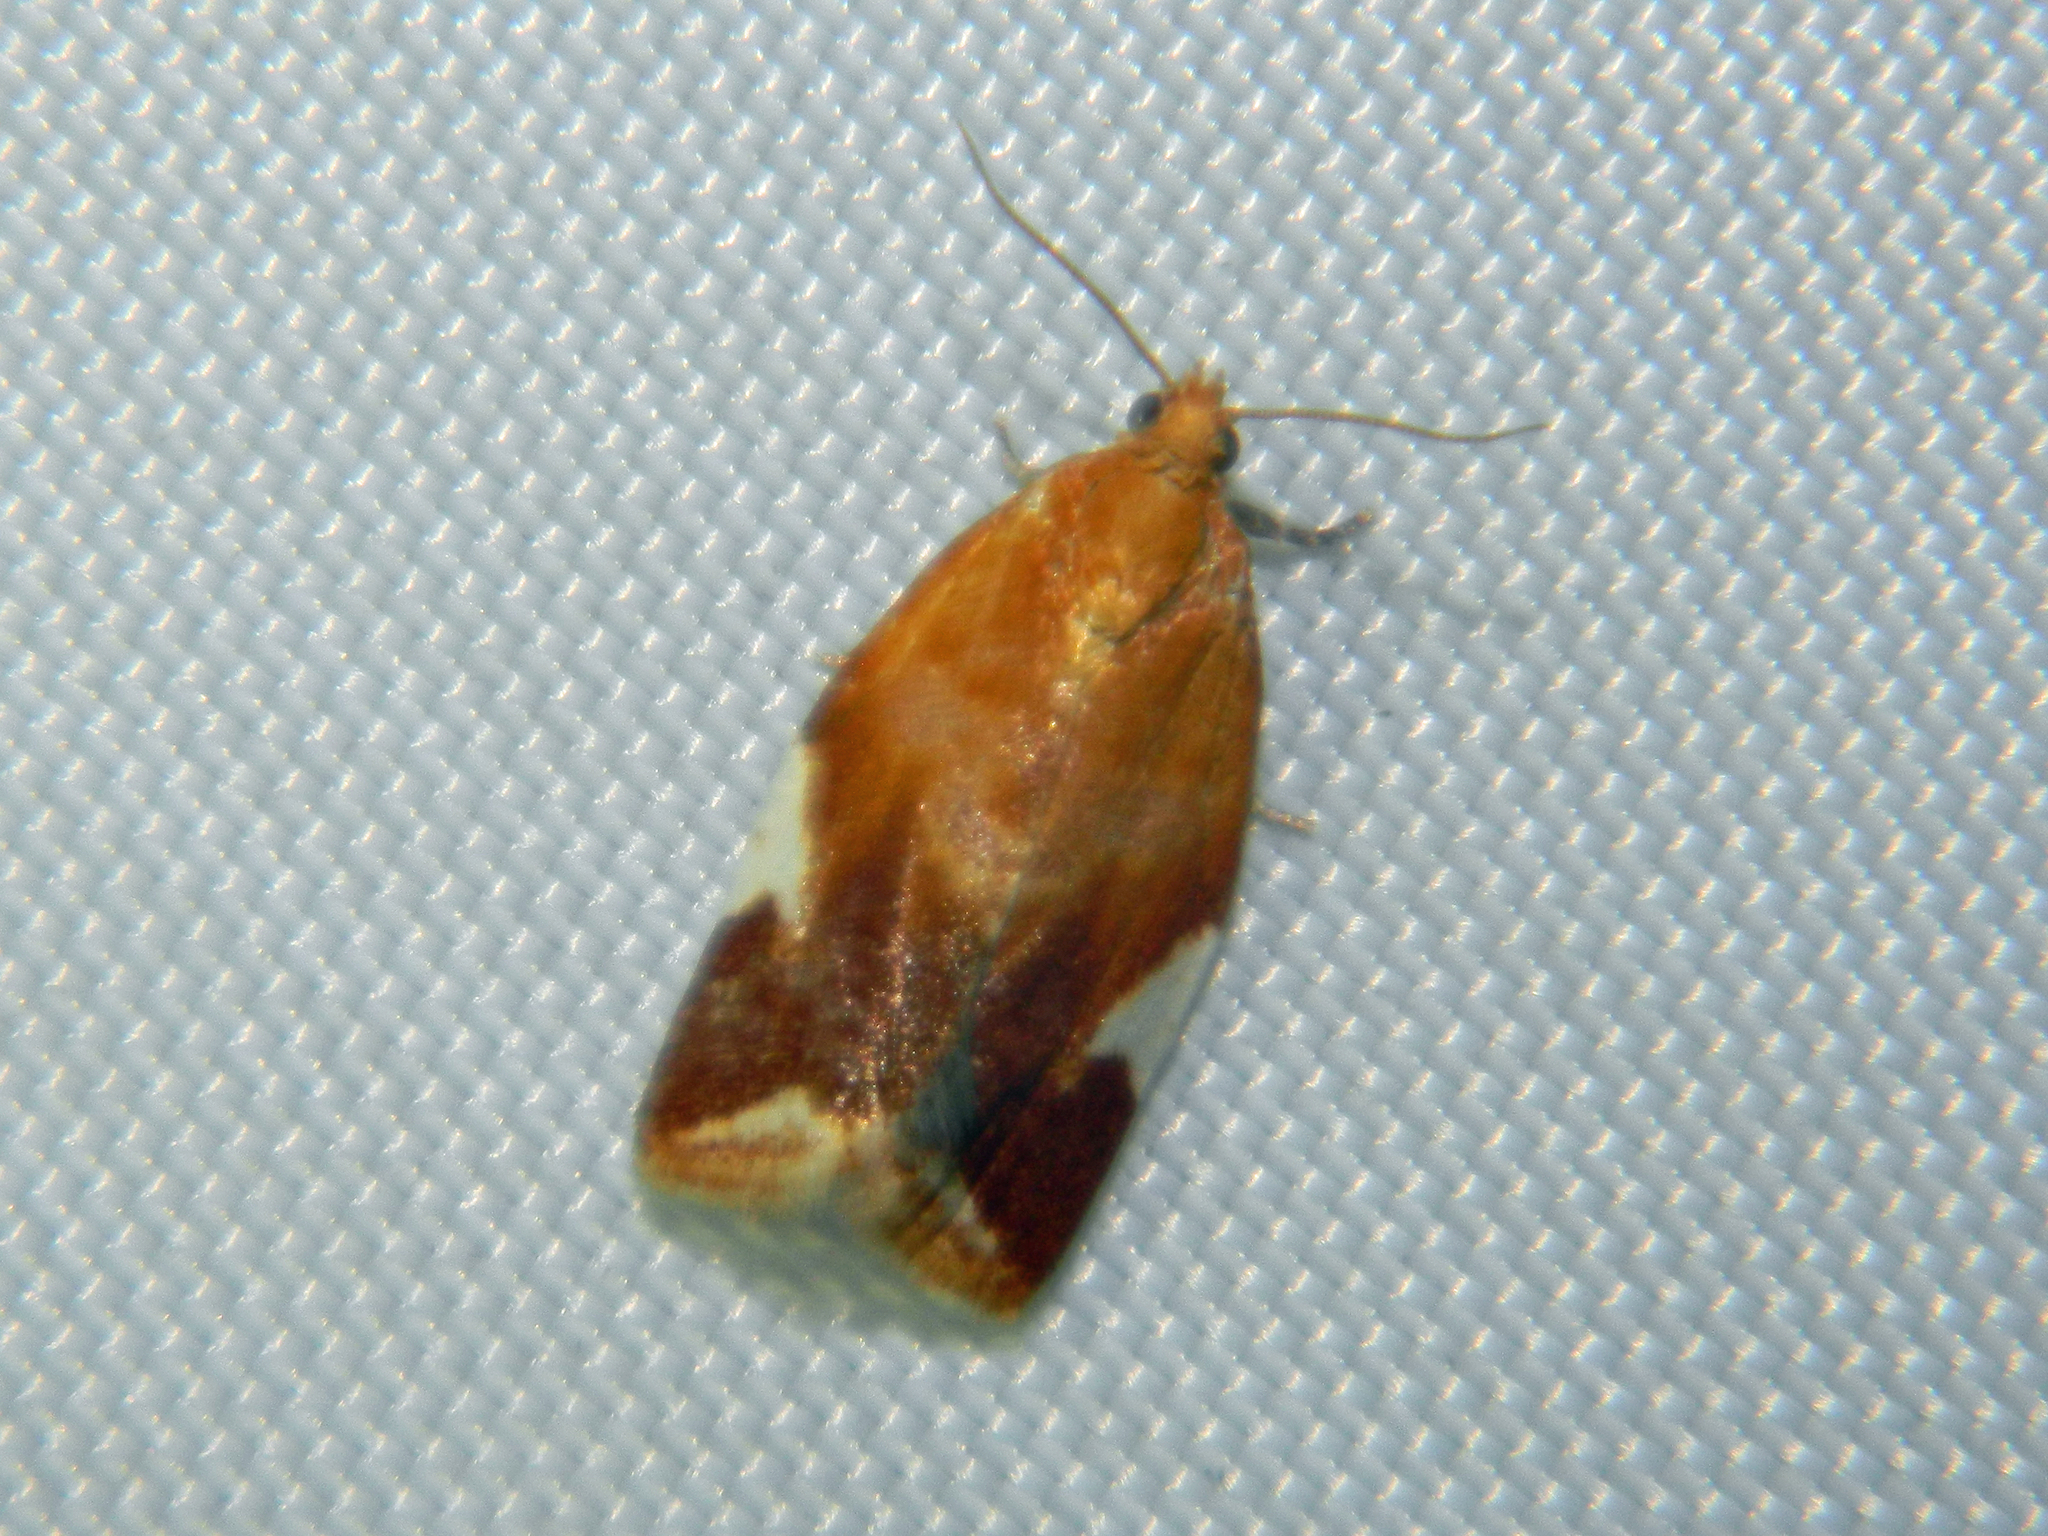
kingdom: Animalia
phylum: Arthropoda
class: Insecta
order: Lepidoptera
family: Tortricidae
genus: Clepsis
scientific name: Clepsis persicana
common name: White triangle tortrix
